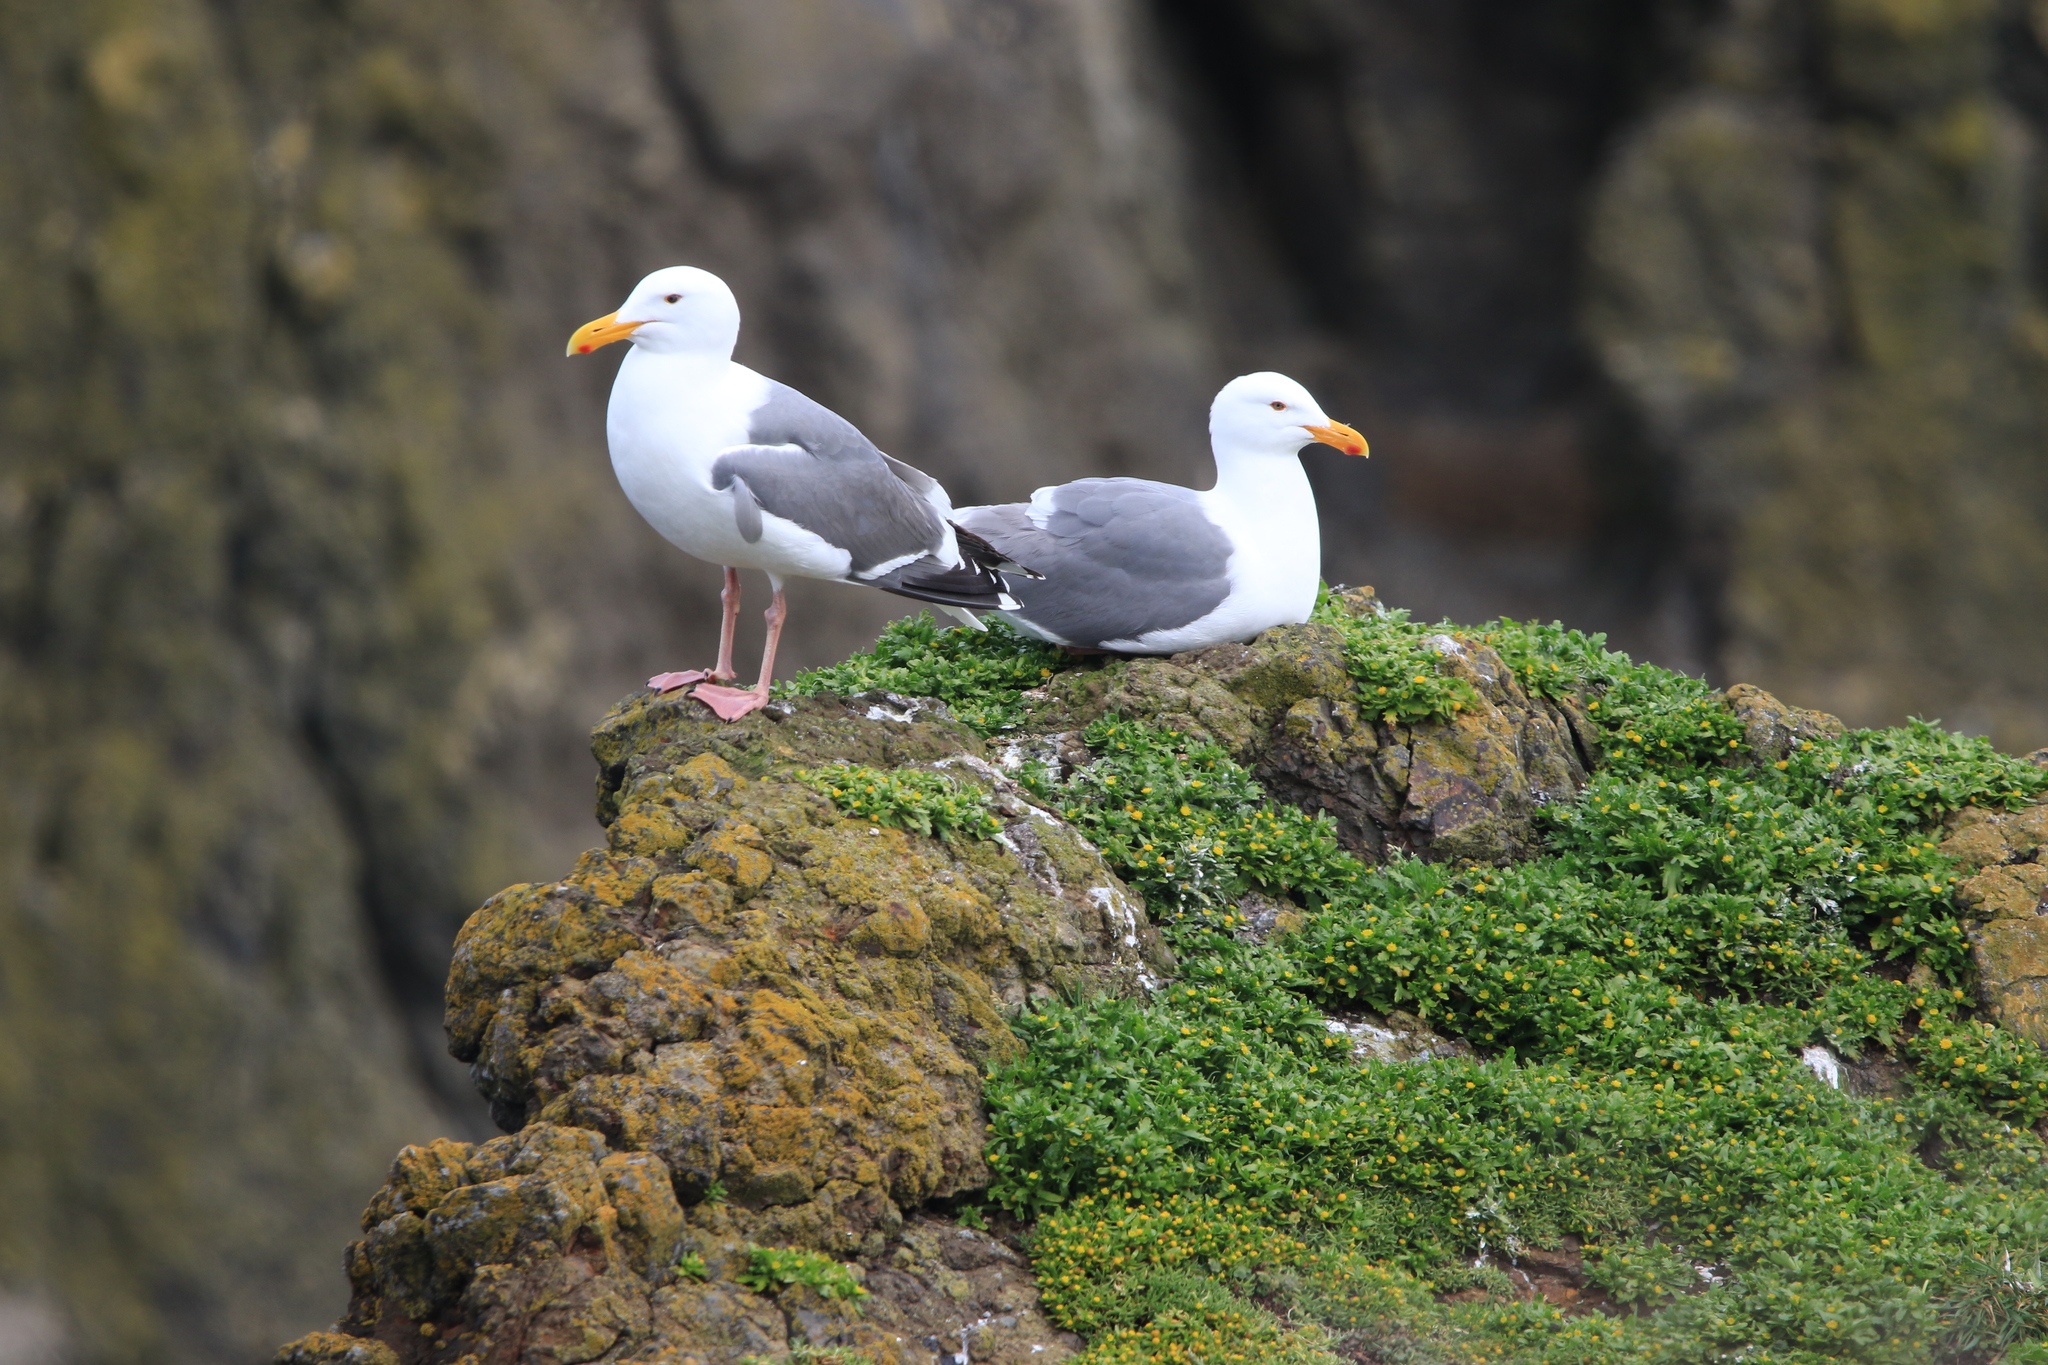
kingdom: Animalia
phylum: Chordata
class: Aves
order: Charadriiformes
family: Laridae
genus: Larus
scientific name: Larus occidentalis
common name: Western gull
